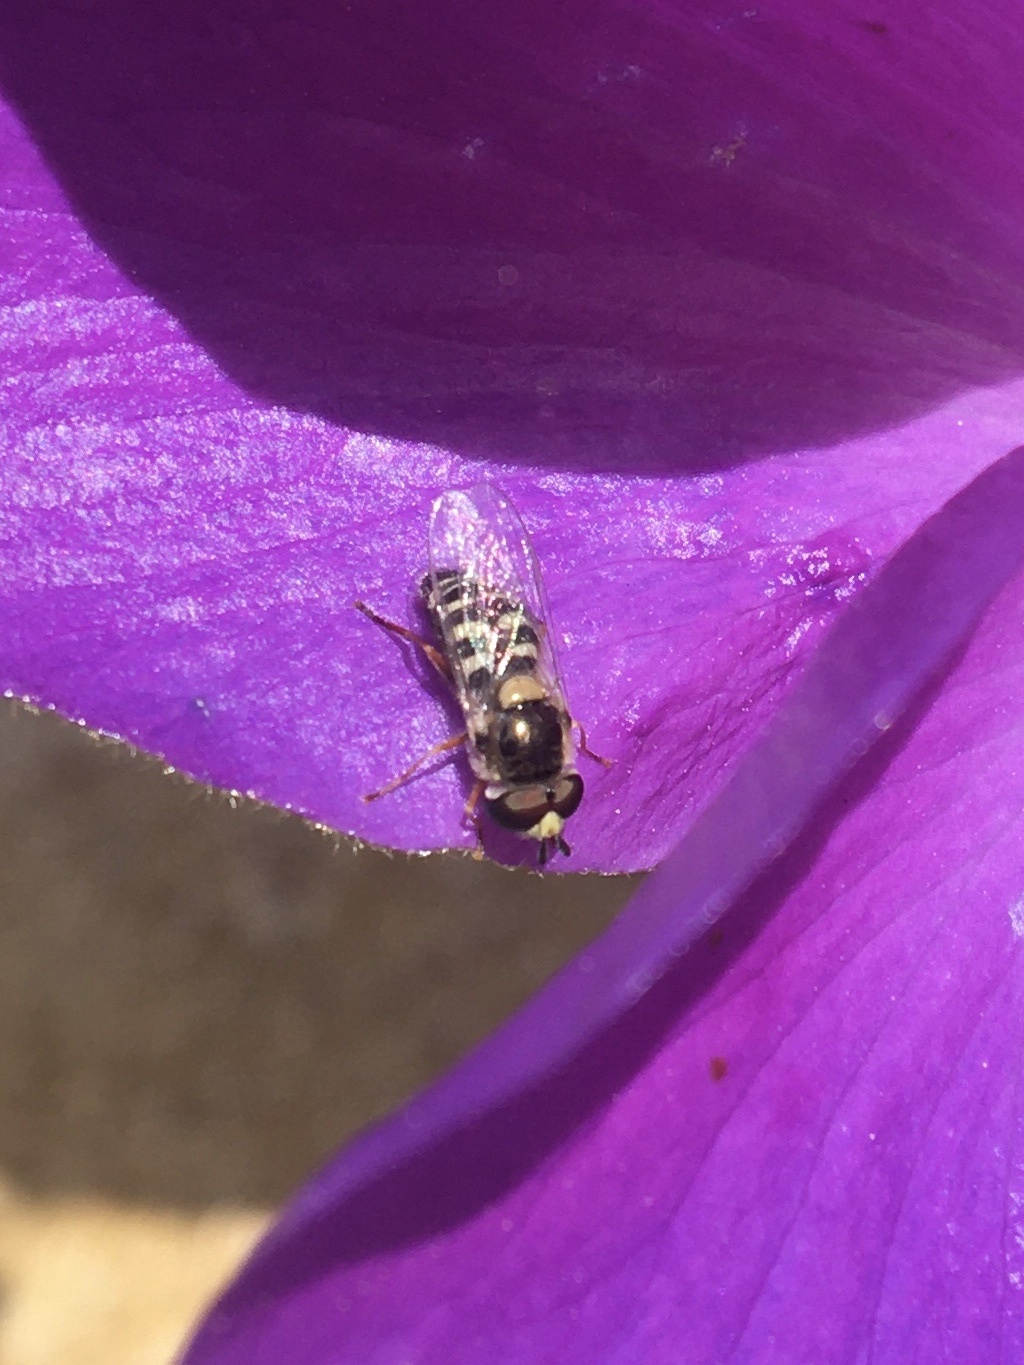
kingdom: Animalia
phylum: Arthropoda
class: Insecta
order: Diptera
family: Syrphidae
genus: Eupeodes
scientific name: Eupeodes volucris
